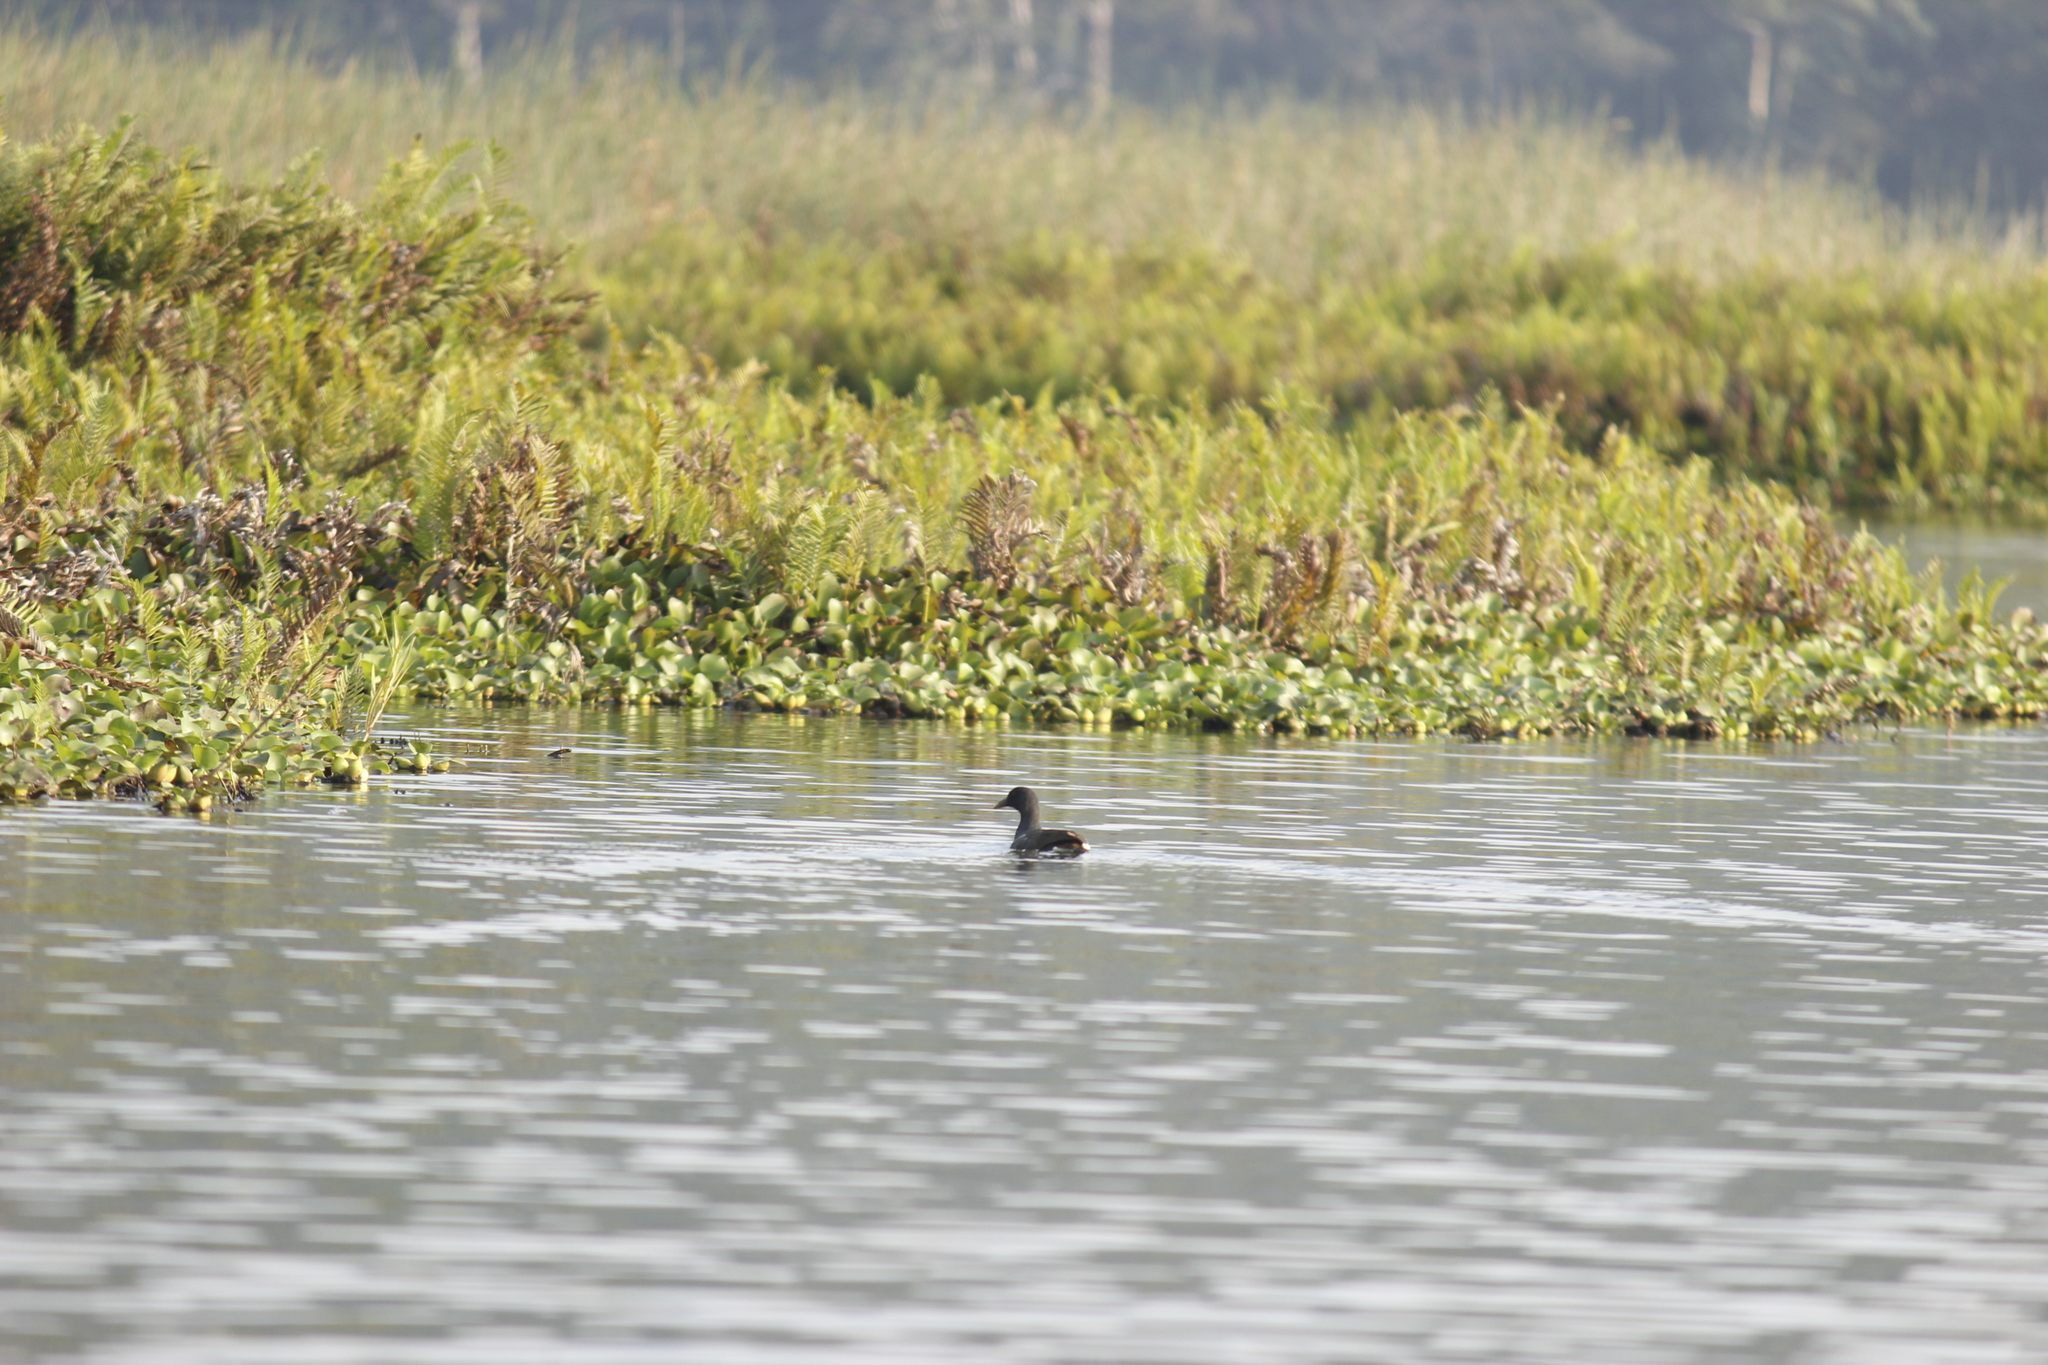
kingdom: Animalia
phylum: Chordata
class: Aves
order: Gruiformes
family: Rallidae
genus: Gallinula
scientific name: Gallinula chloropus
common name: Common moorhen
